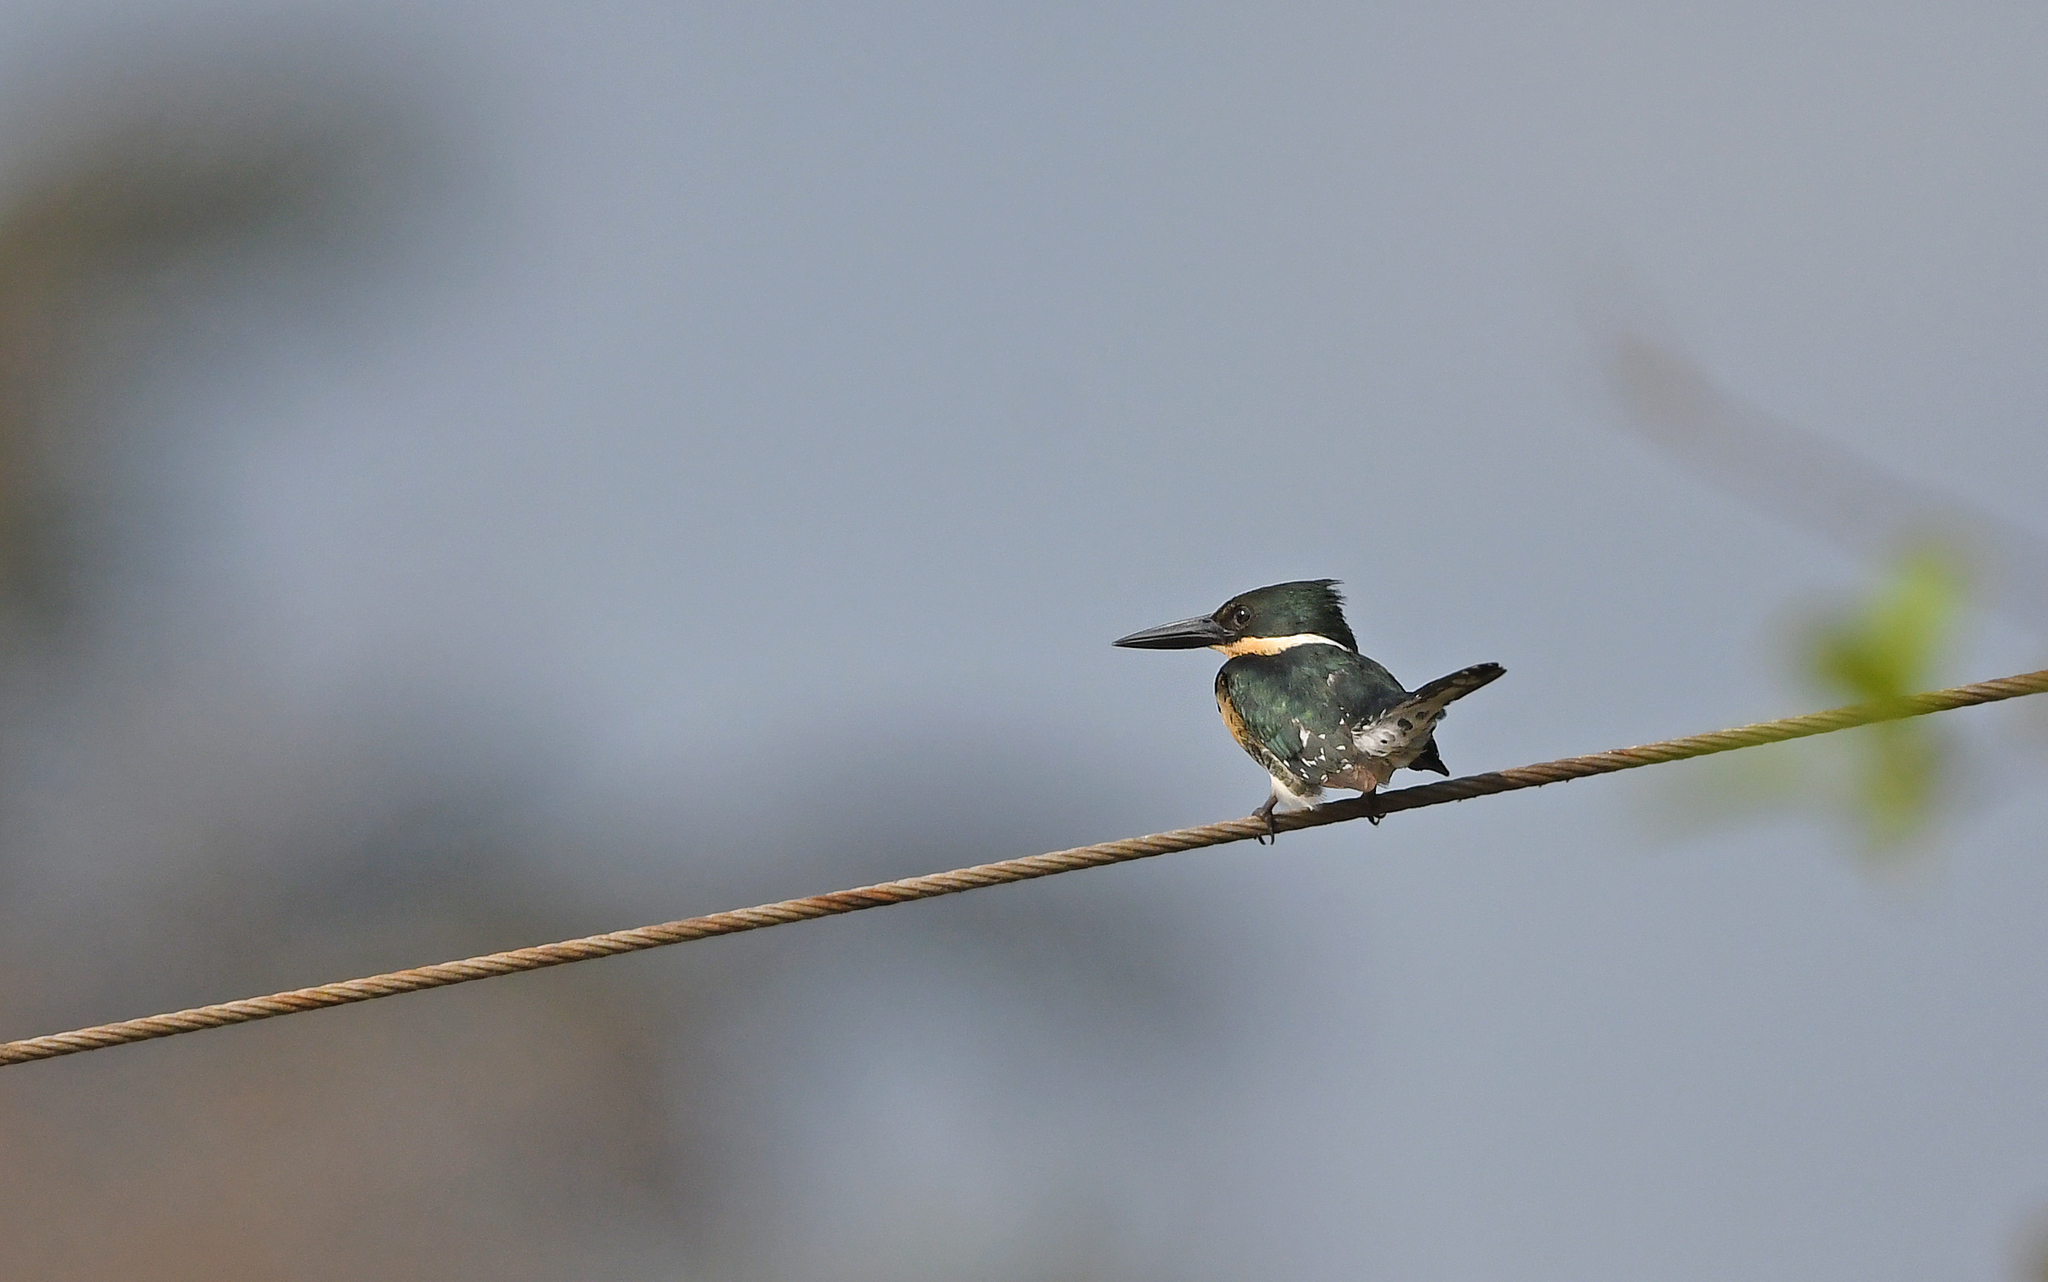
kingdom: Animalia
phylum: Chordata
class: Aves
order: Coraciiformes
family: Alcedinidae
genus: Chloroceryle
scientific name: Chloroceryle americana
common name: Green kingfisher
